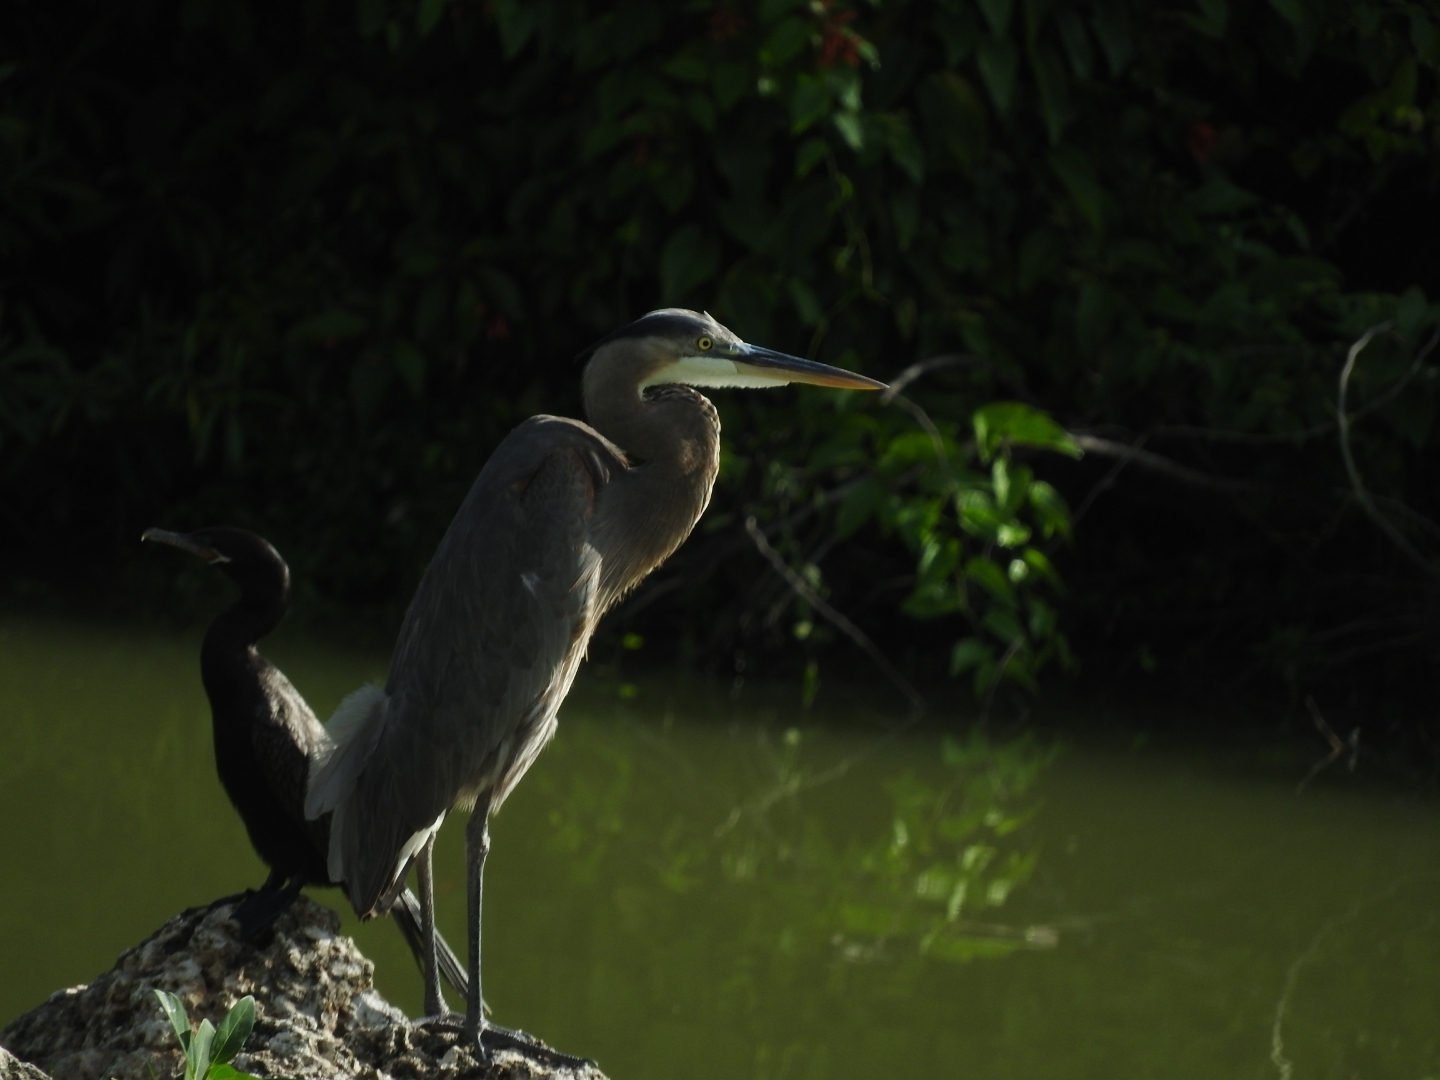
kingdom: Animalia
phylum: Chordata
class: Aves
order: Pelecaniformes
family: Ardeidae
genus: Ardea
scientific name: Ardea herodias
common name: Great blue heron
